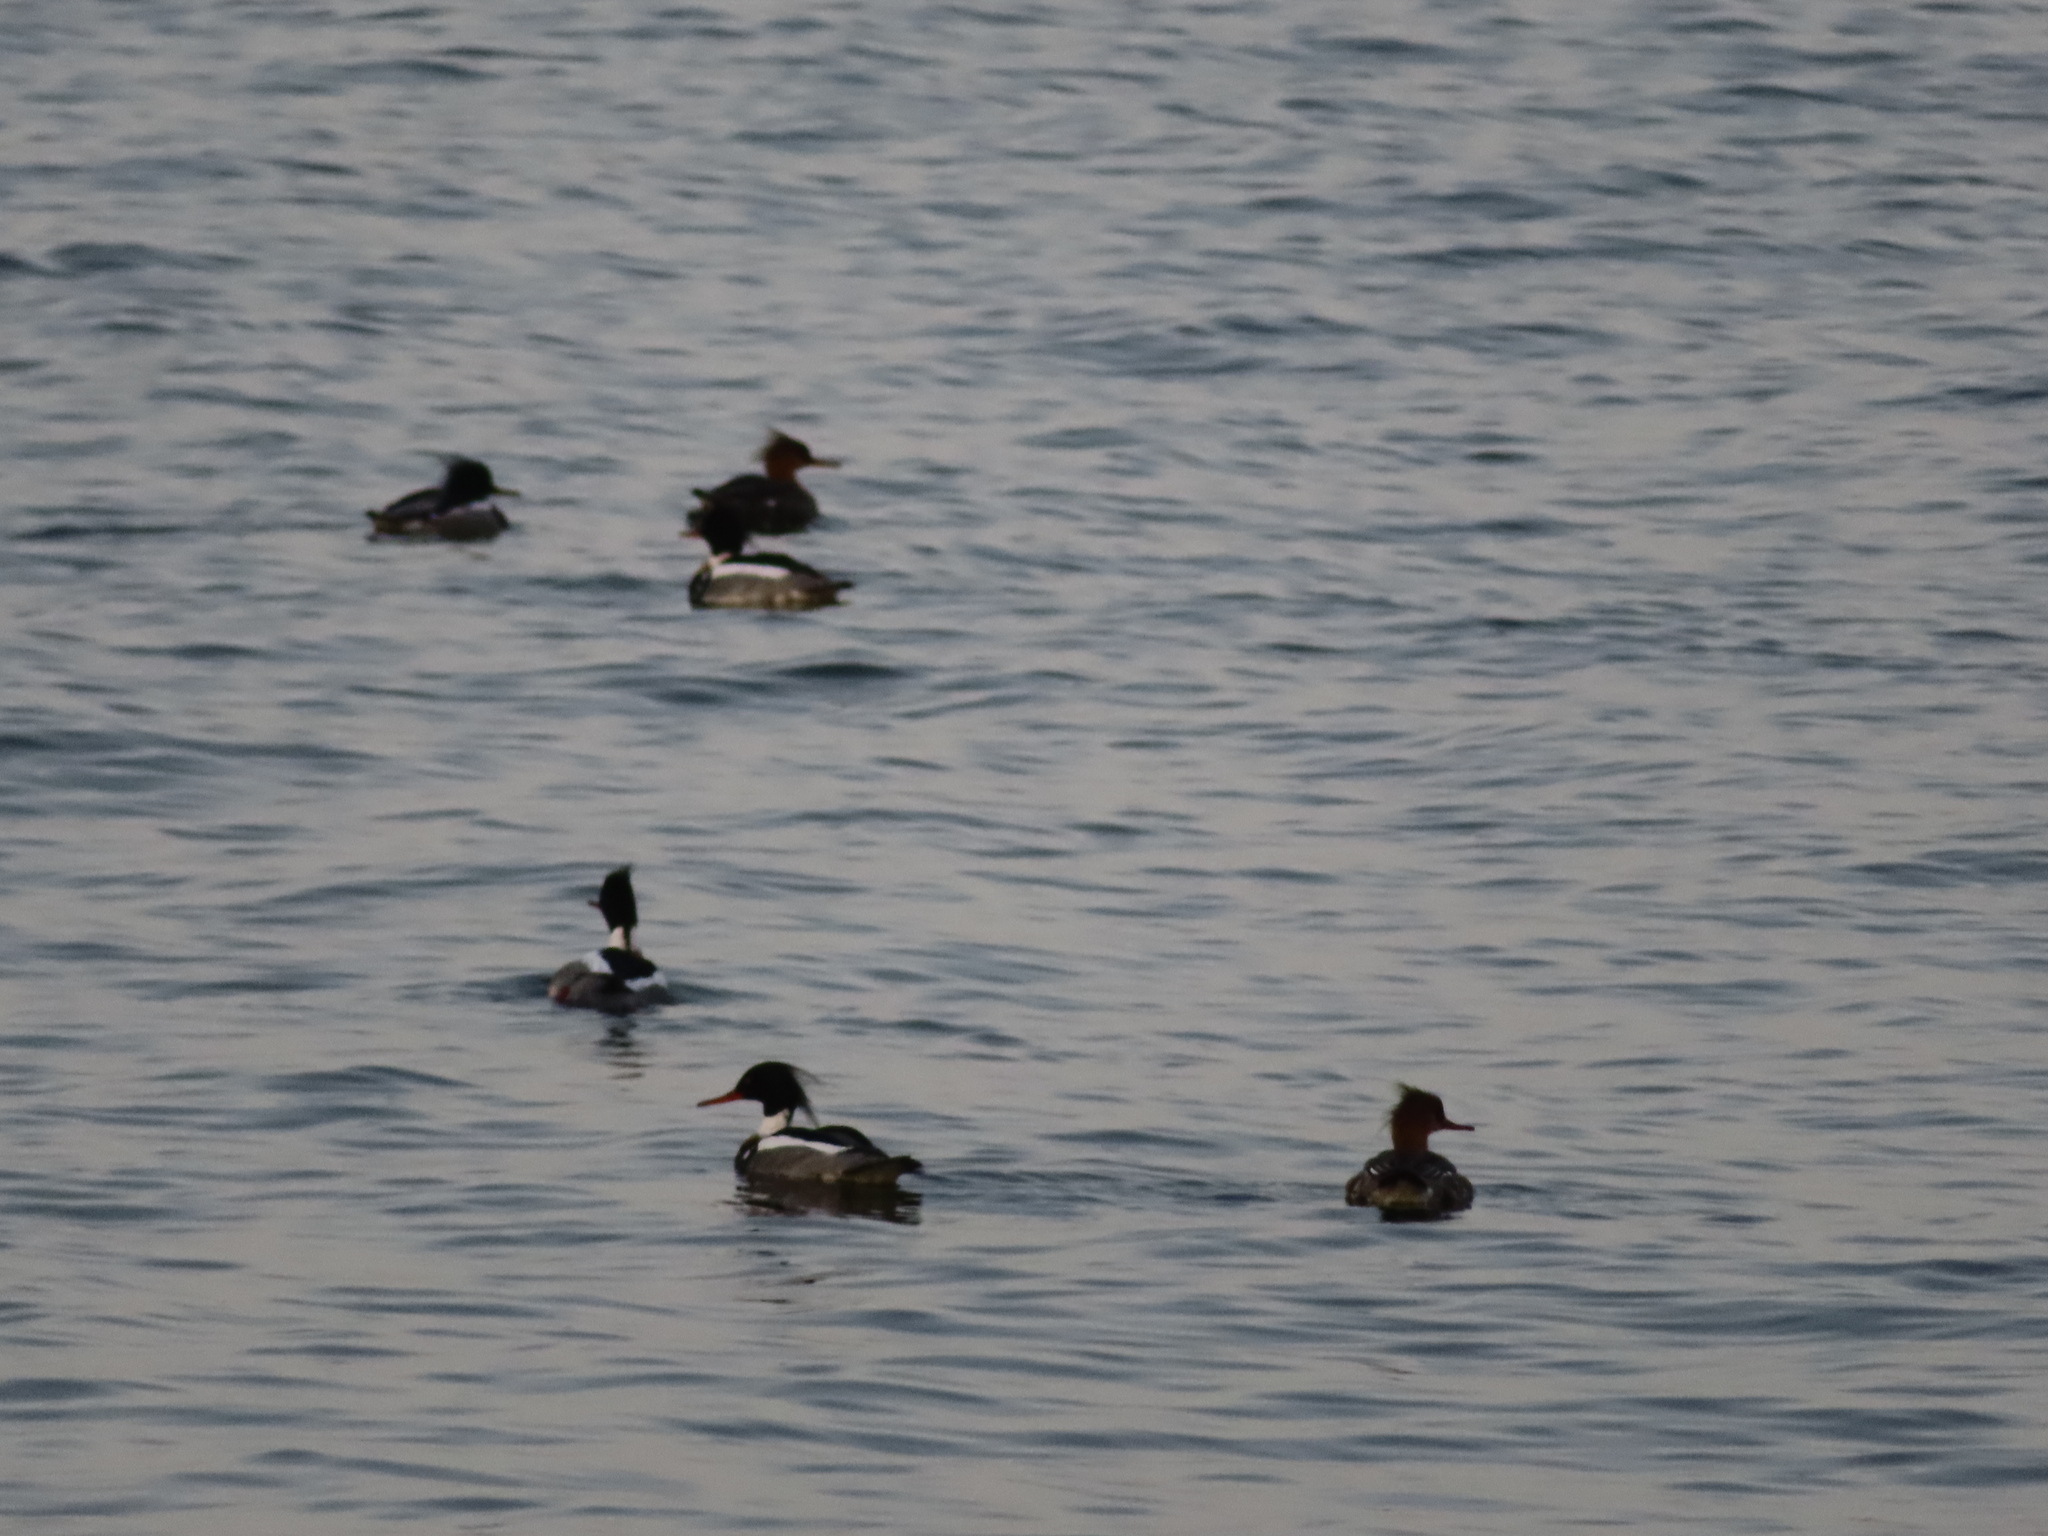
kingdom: Animalia
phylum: Chordata
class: Aves
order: Anseriformes
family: Anatidae
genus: Mergus
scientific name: Mergus serrator
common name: Red-breasted merganser
